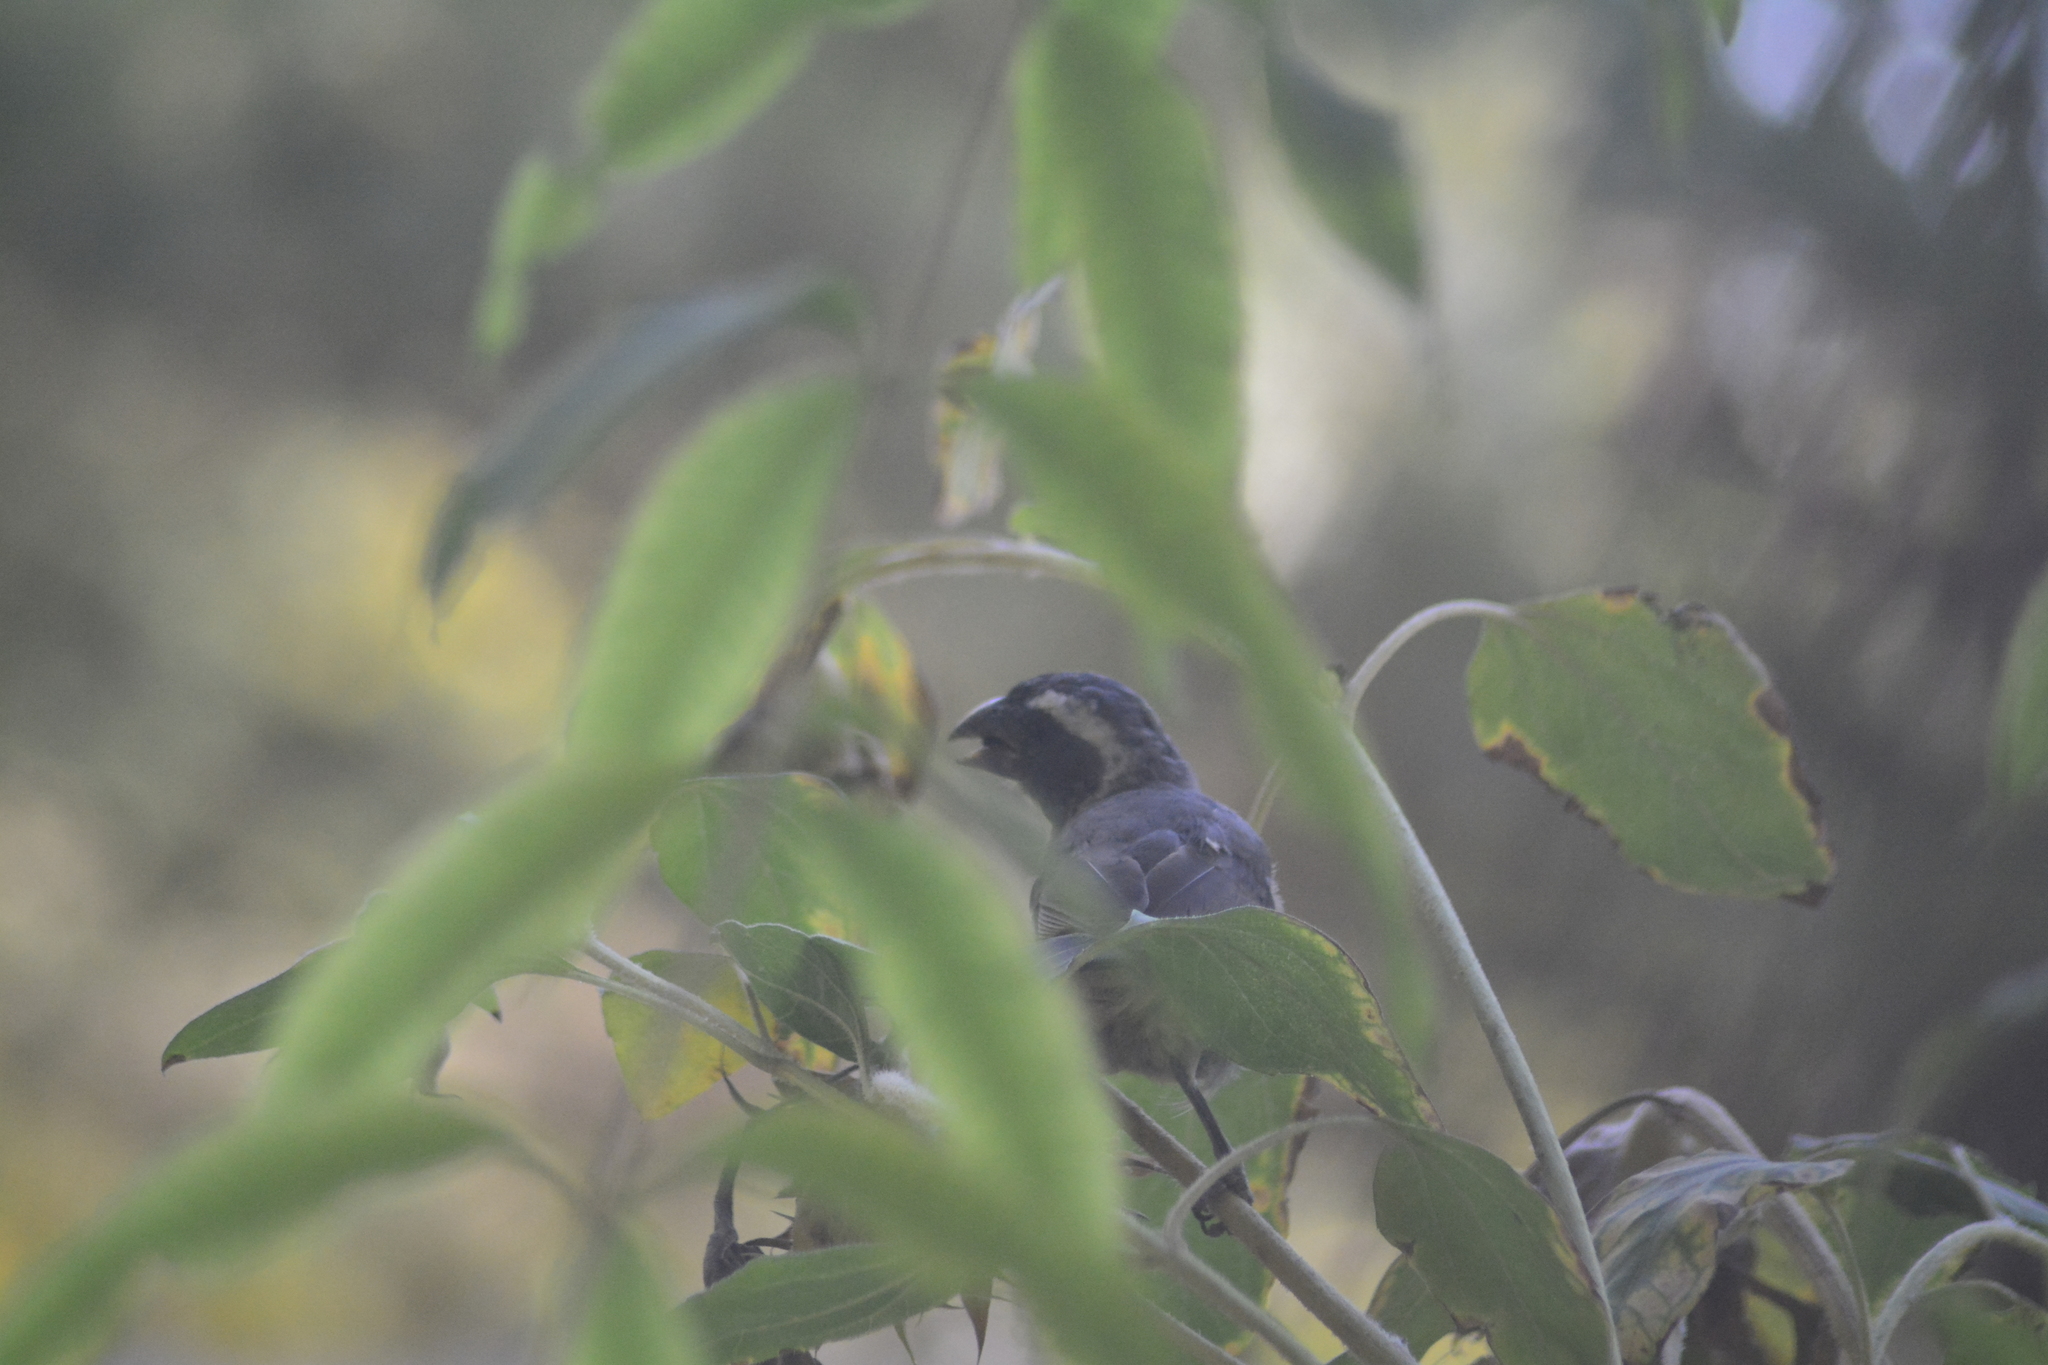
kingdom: Animalia
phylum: Chordata
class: Aves
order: Passeriformes
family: Thraupidae
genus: Saltator
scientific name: Saltator aurantiirostris
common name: Golden-billed saltator
